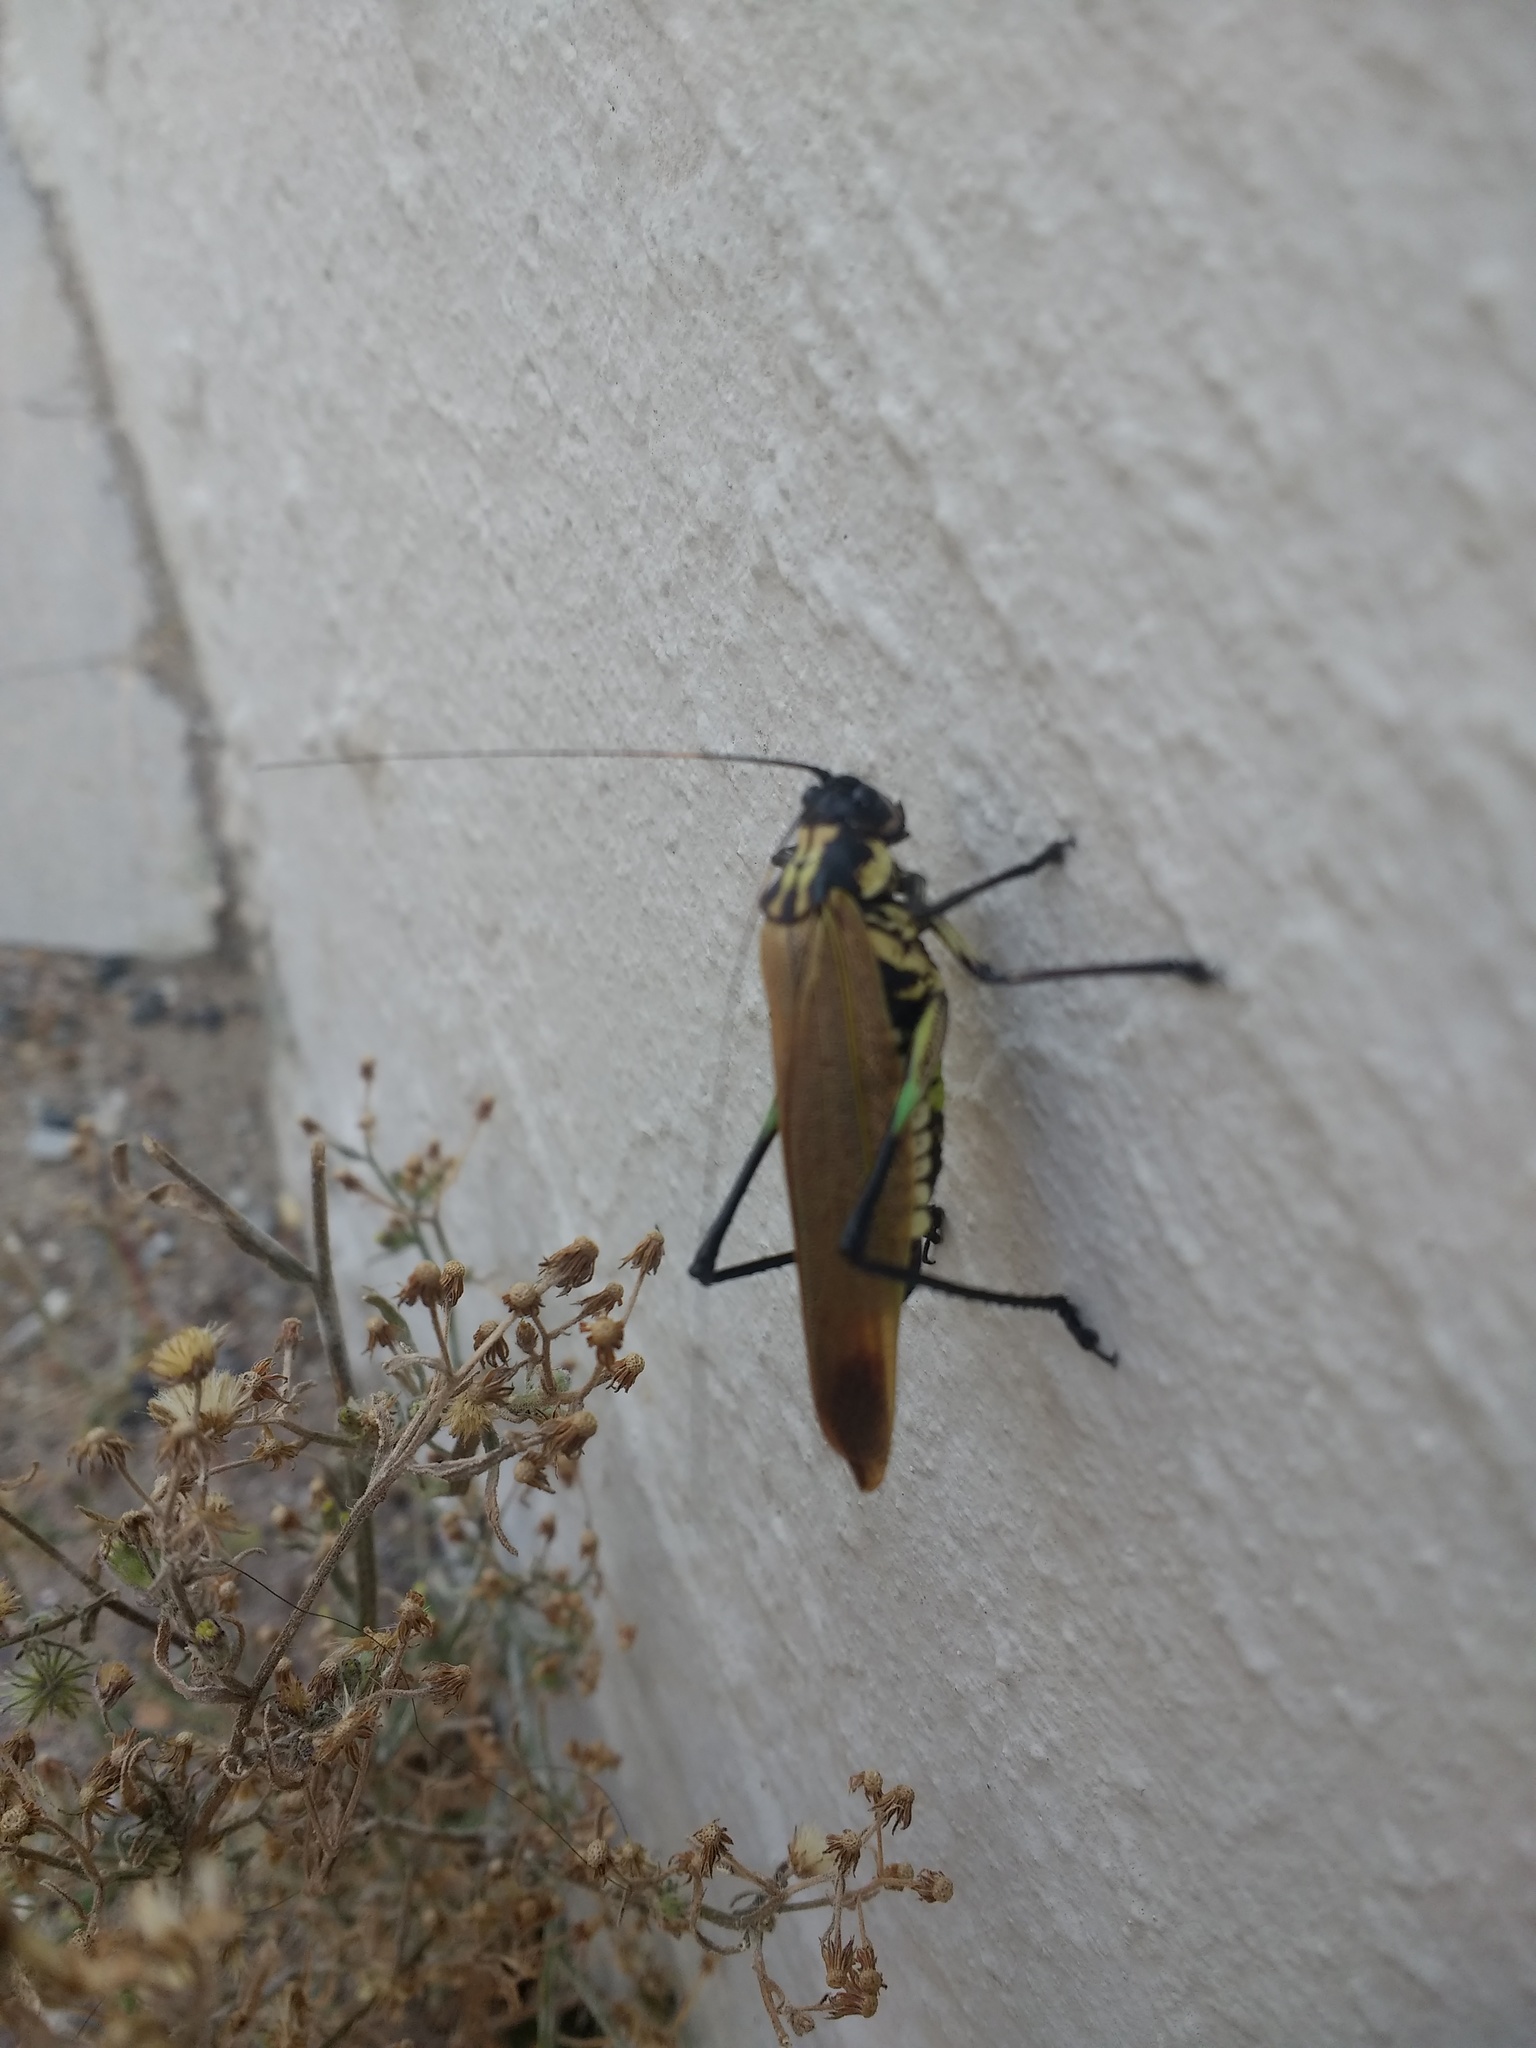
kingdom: Animalia
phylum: Arthropoda
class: Insecta
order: Orthoptera
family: Tettigoniidae
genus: Scaphura
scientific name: Scaphura elegans
